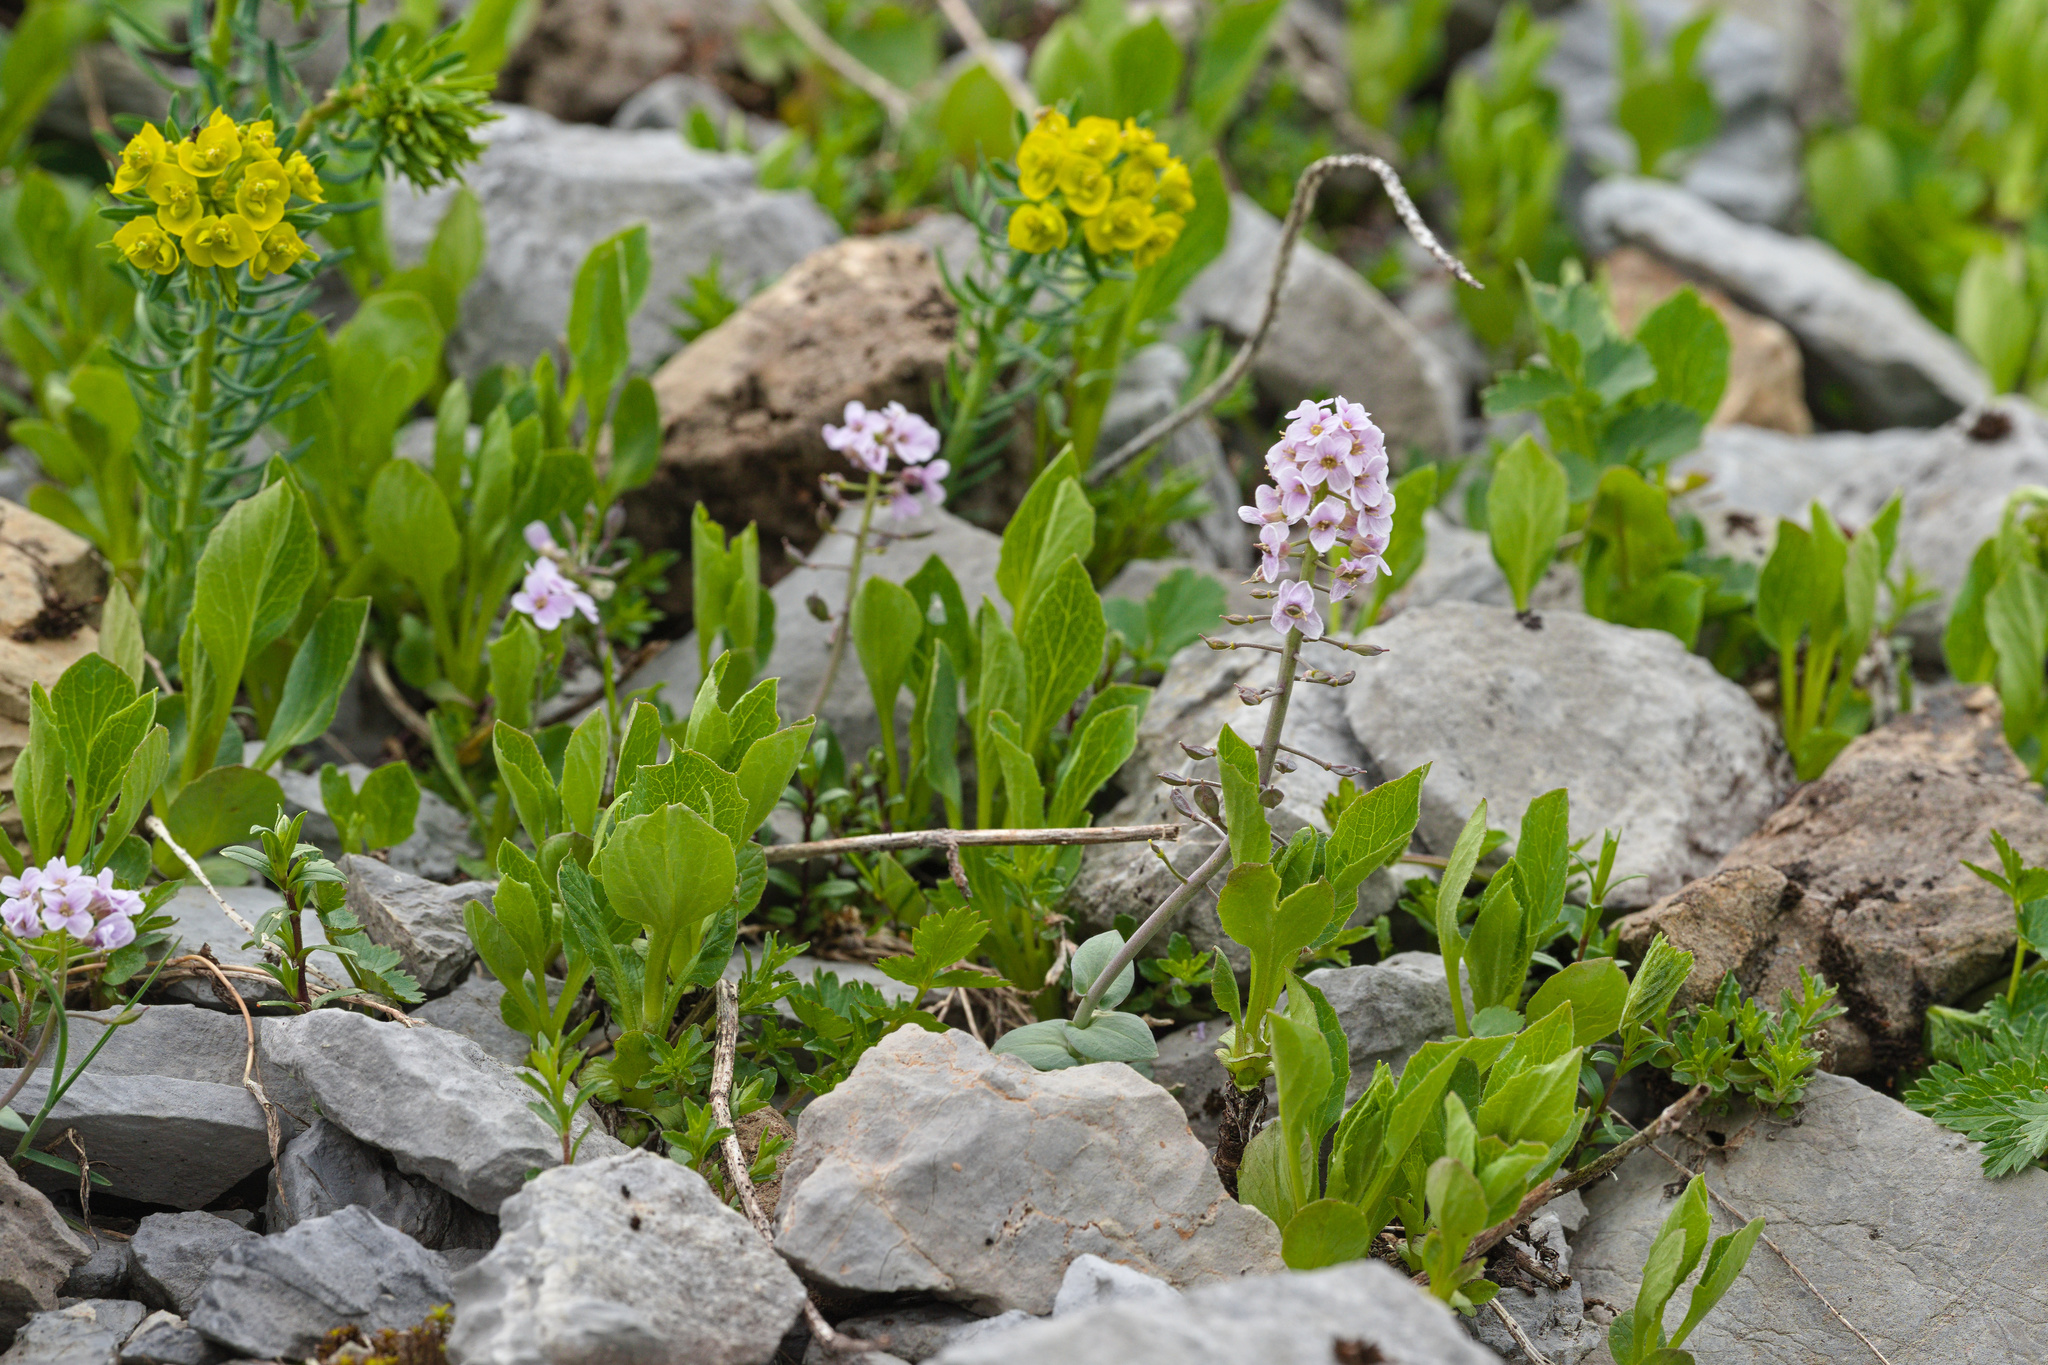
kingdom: Plantae
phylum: Tracheophyta
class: Magnoliopsida
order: Malpighiales
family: Euphorbiaceae
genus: Euphorbia
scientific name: Euphorbia cyparissias
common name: Cypress spurge
